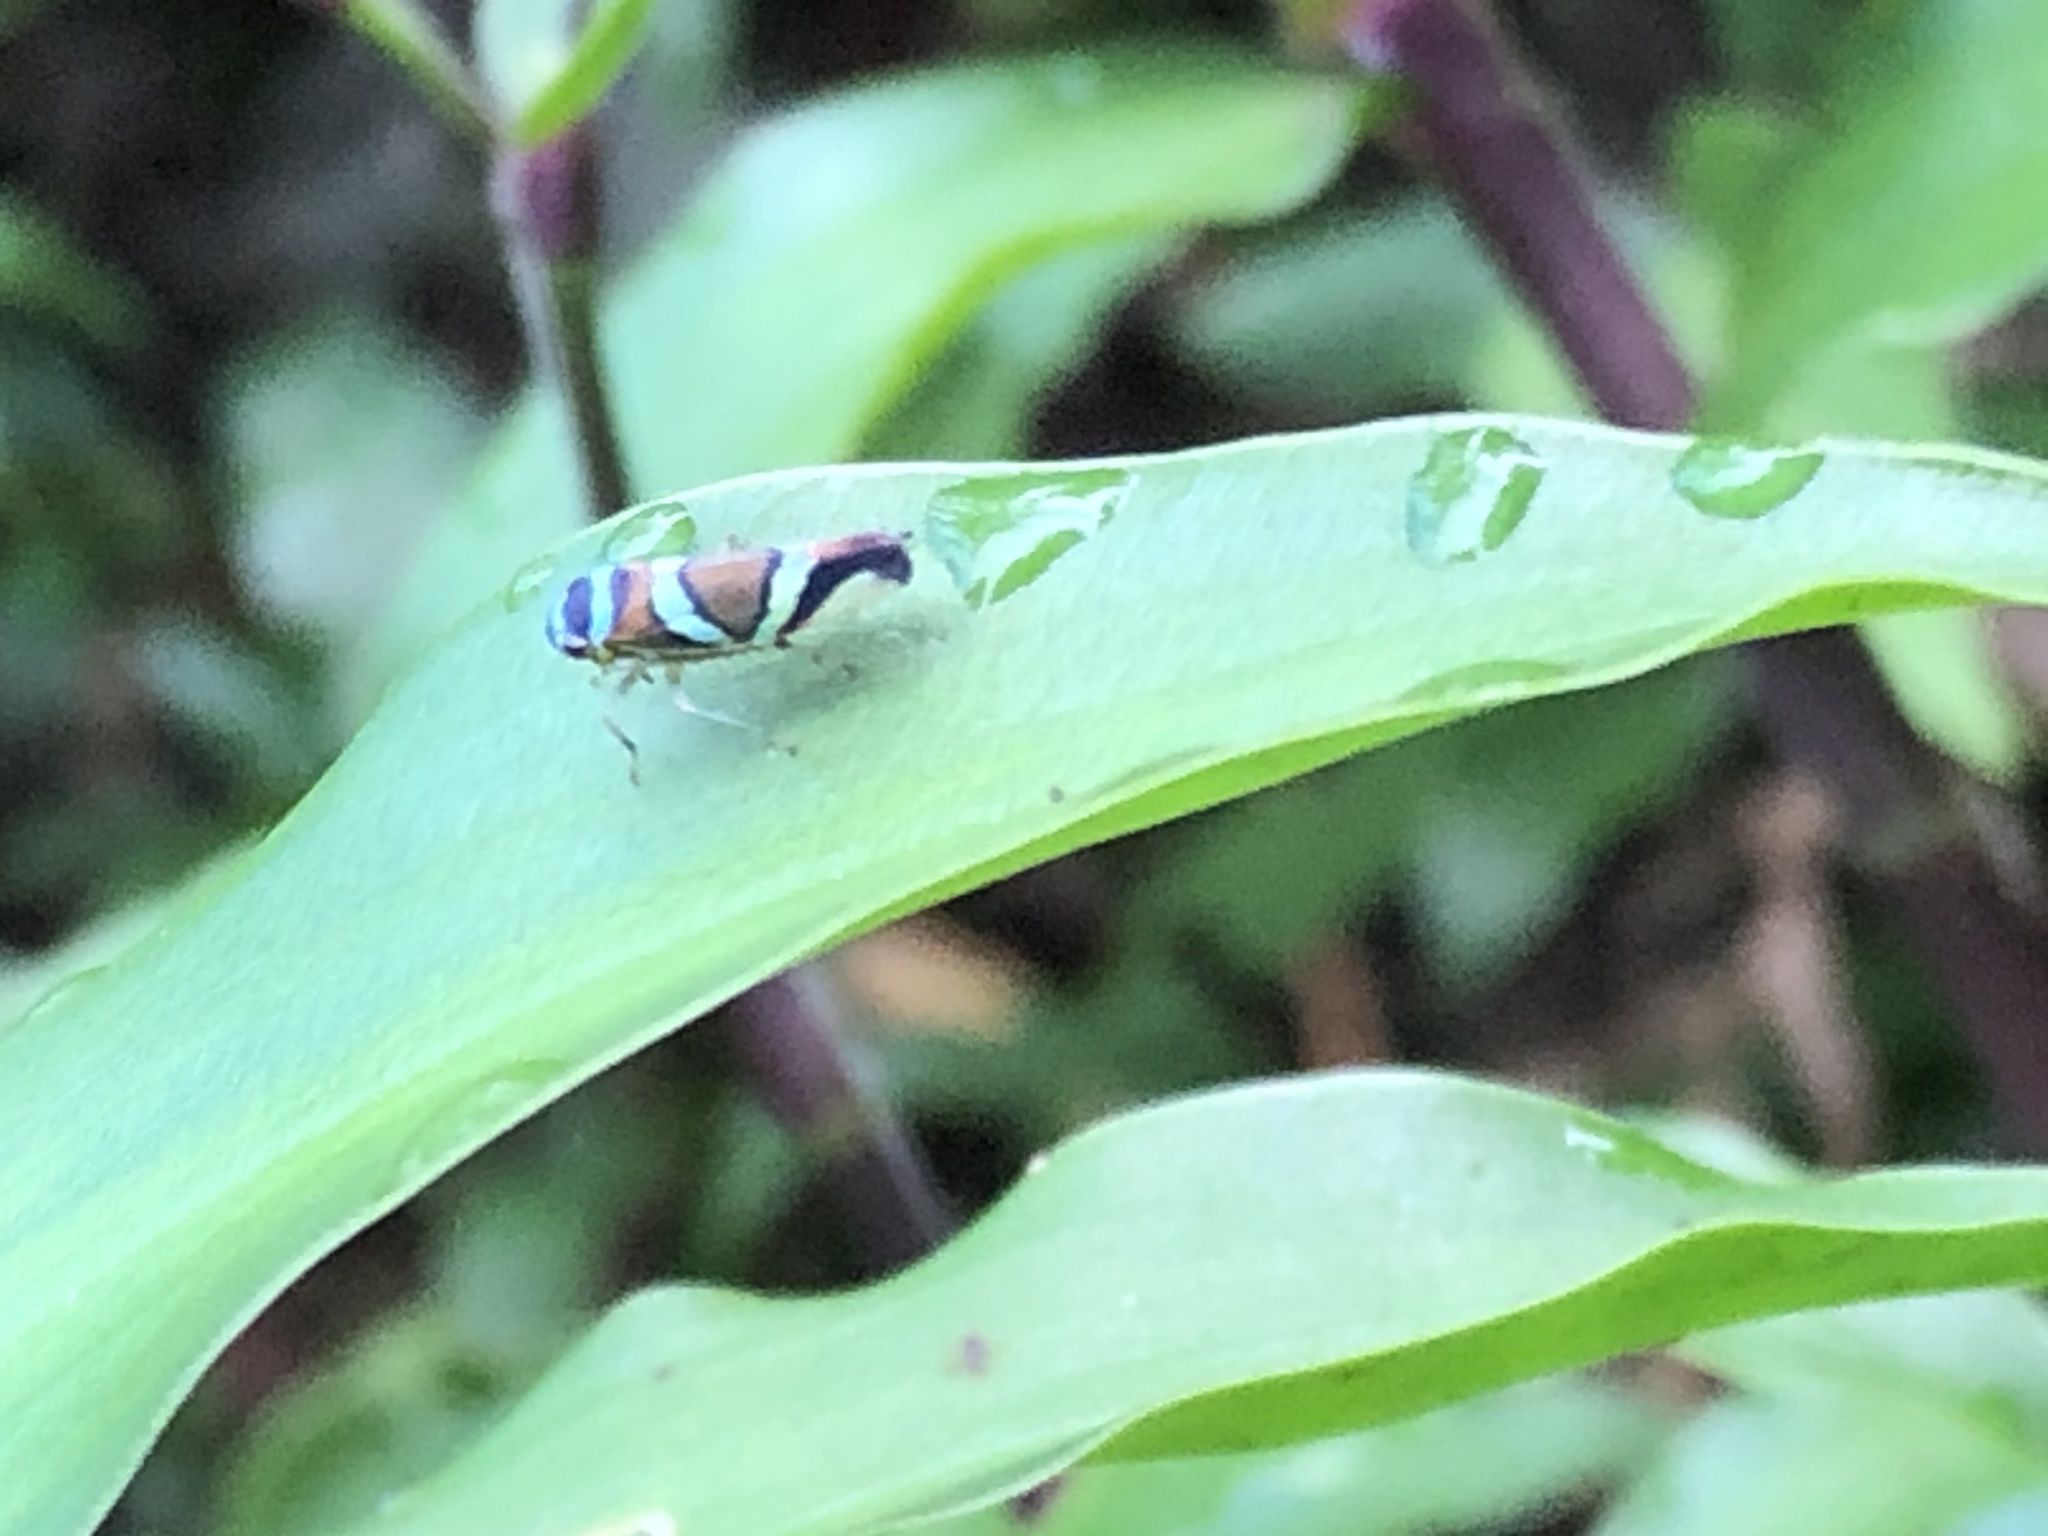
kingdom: Animalia
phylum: Arthropoda
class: Insecta
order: Hemiptera
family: Cicadellidae
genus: Macugonalia
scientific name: Macugonalia moesta
